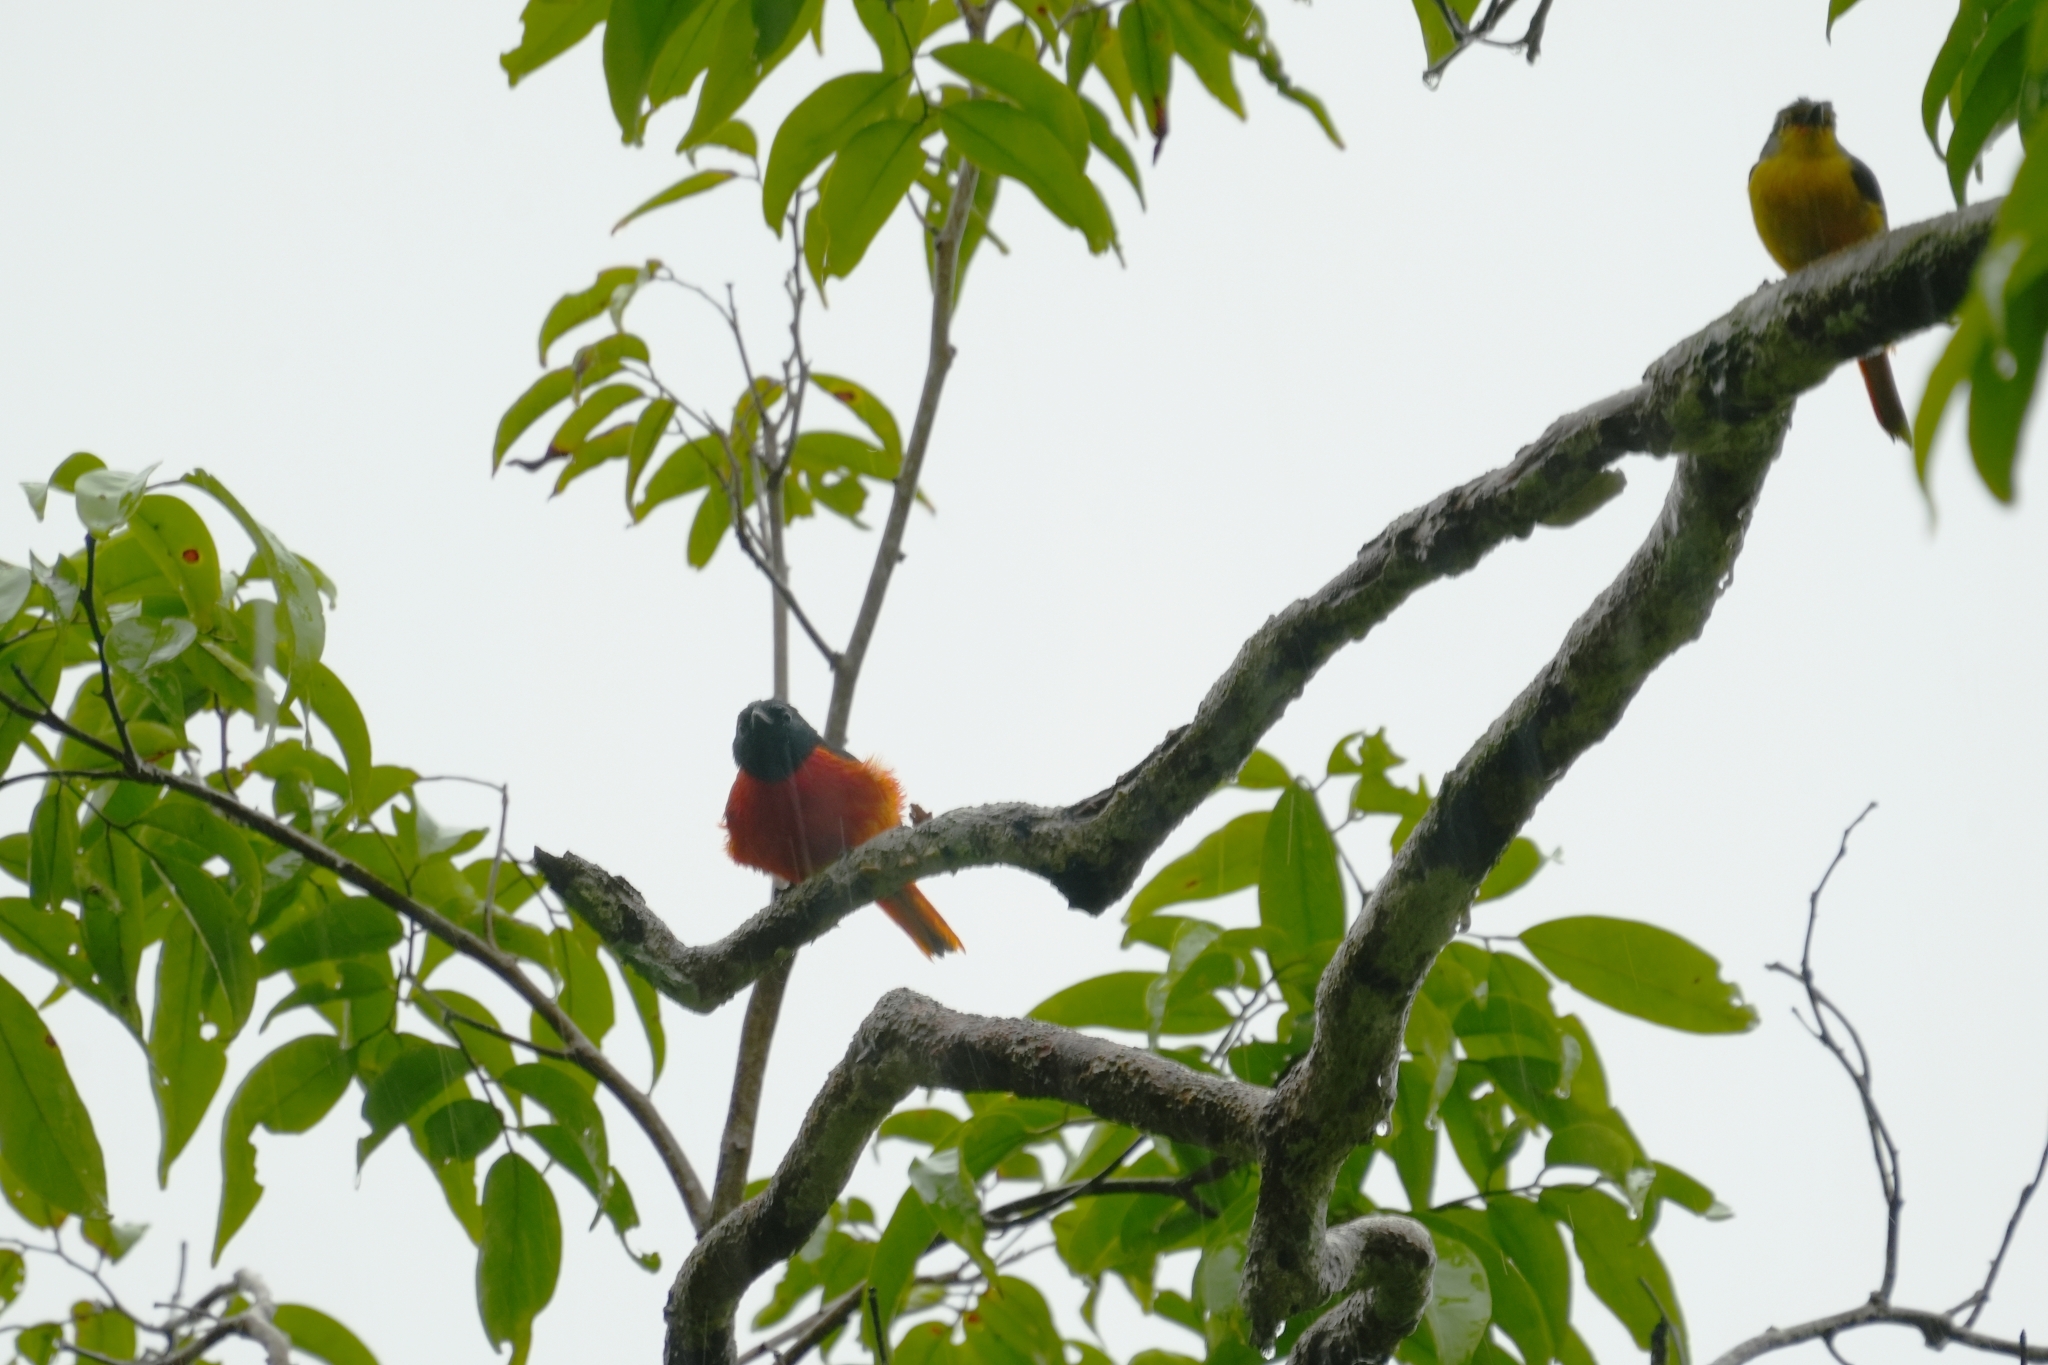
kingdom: Animalia
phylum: Chordata
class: Aves
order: Passeriformes
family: Campephagidae
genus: Pericrocotus
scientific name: Pericrocotus igneus
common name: Fiery minivet
